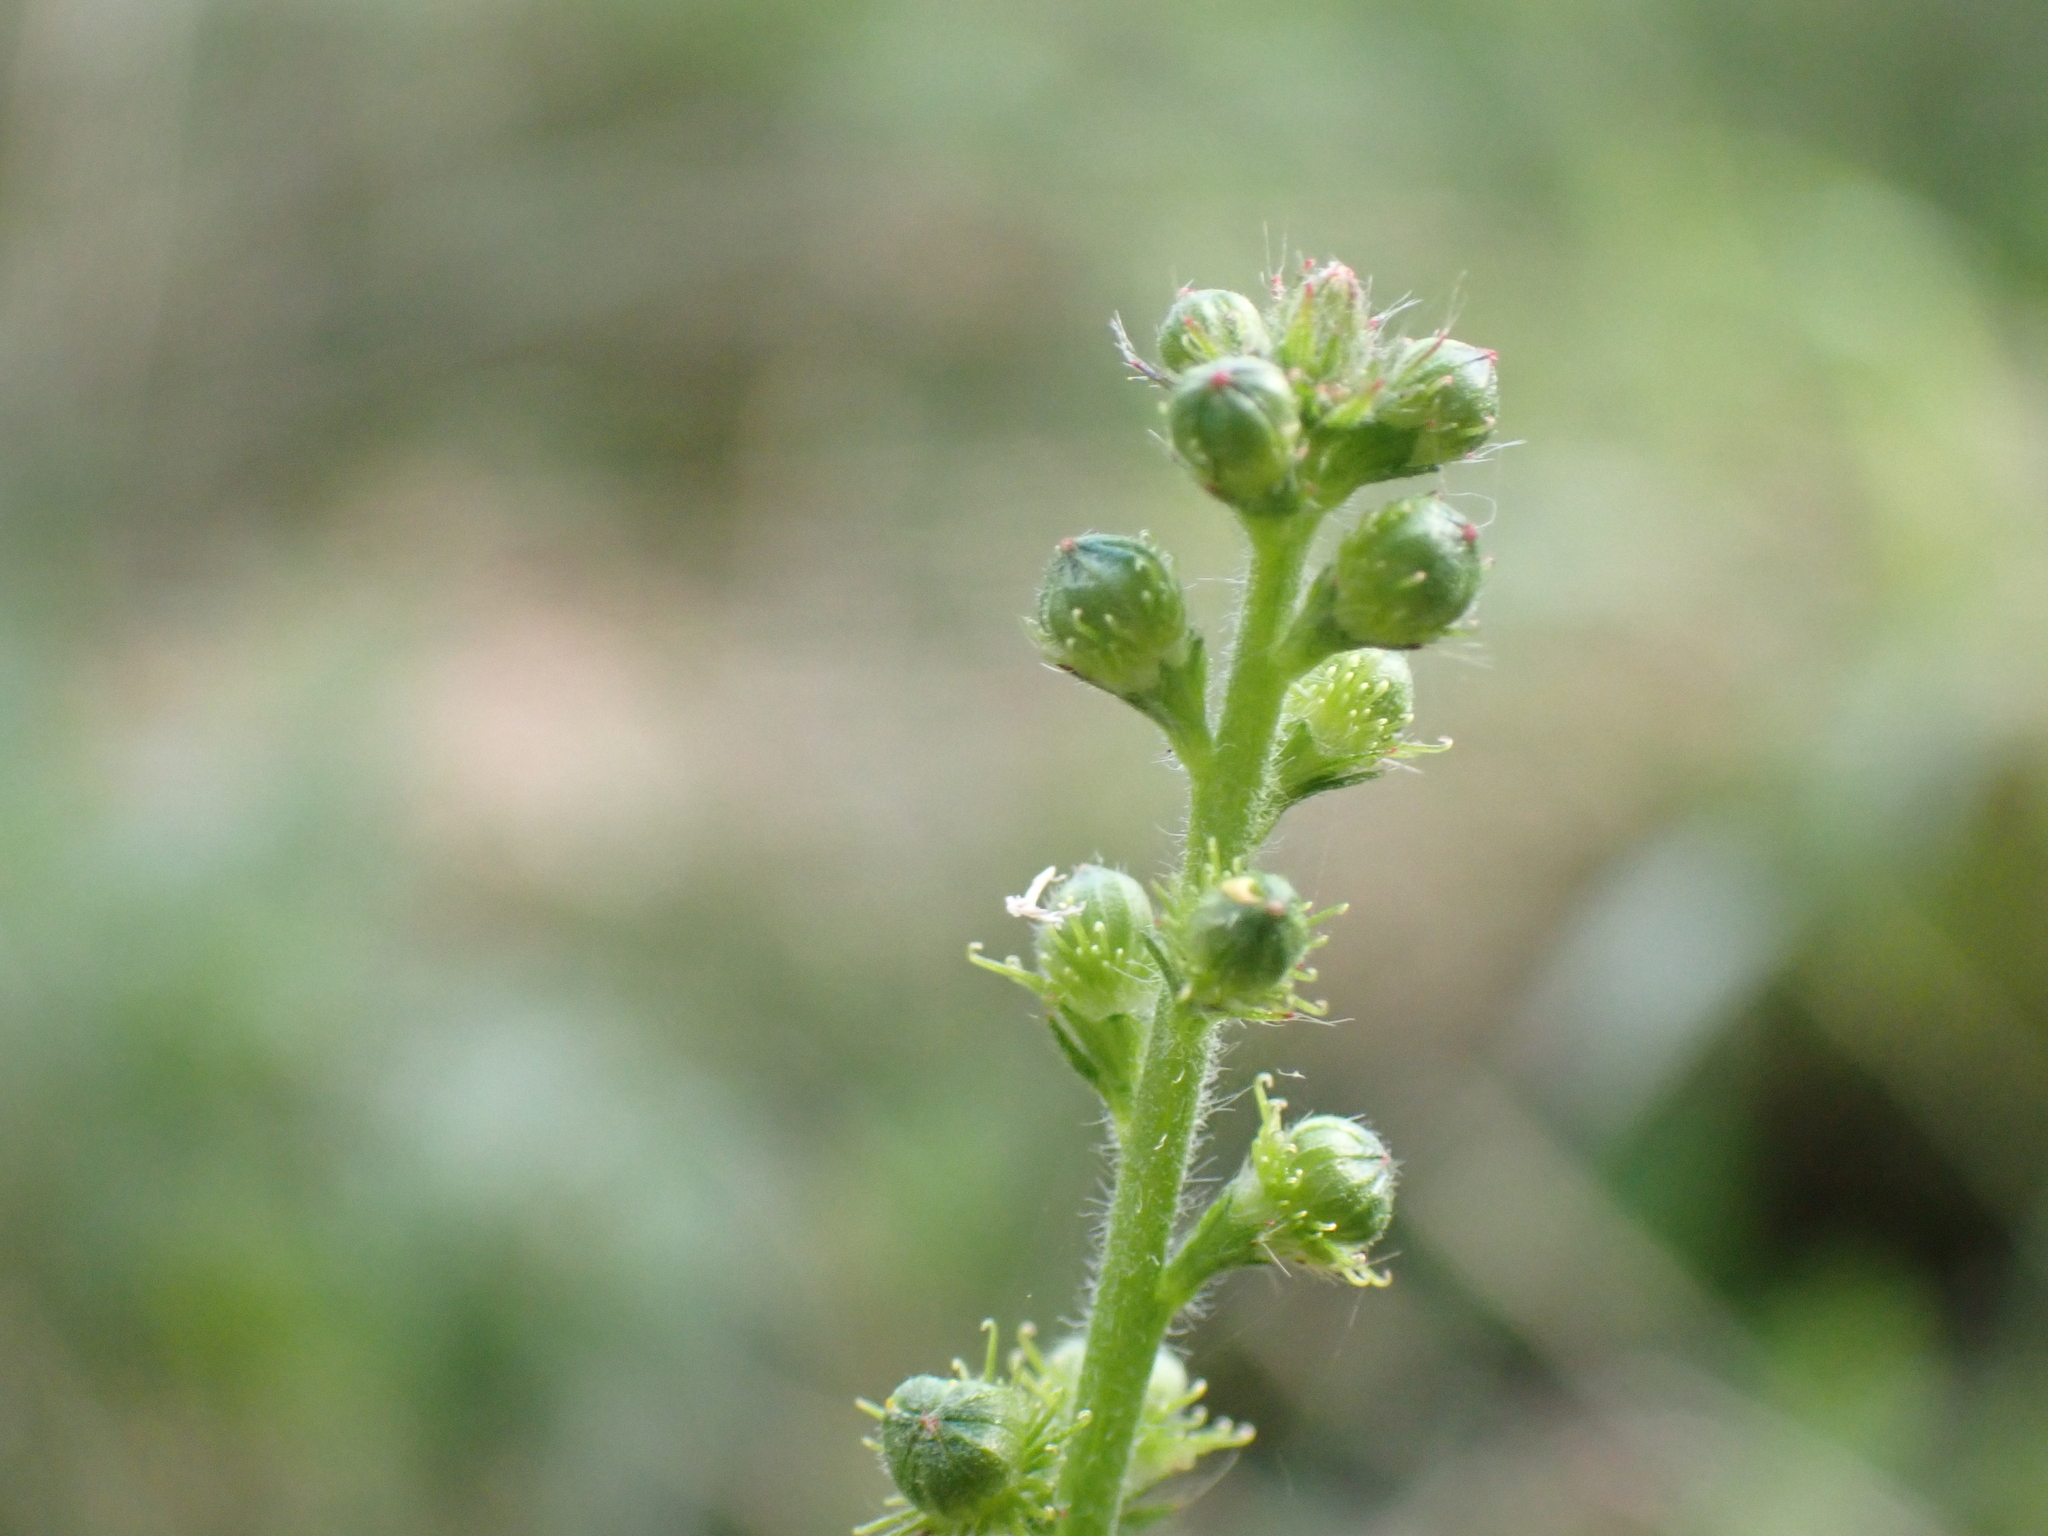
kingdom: Plantae
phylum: Tracheophyta
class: Magnoliopsida
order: Rosales
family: Rosaceae
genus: Agrimonia
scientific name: Agrimonia eupatoria
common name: Agrimony
